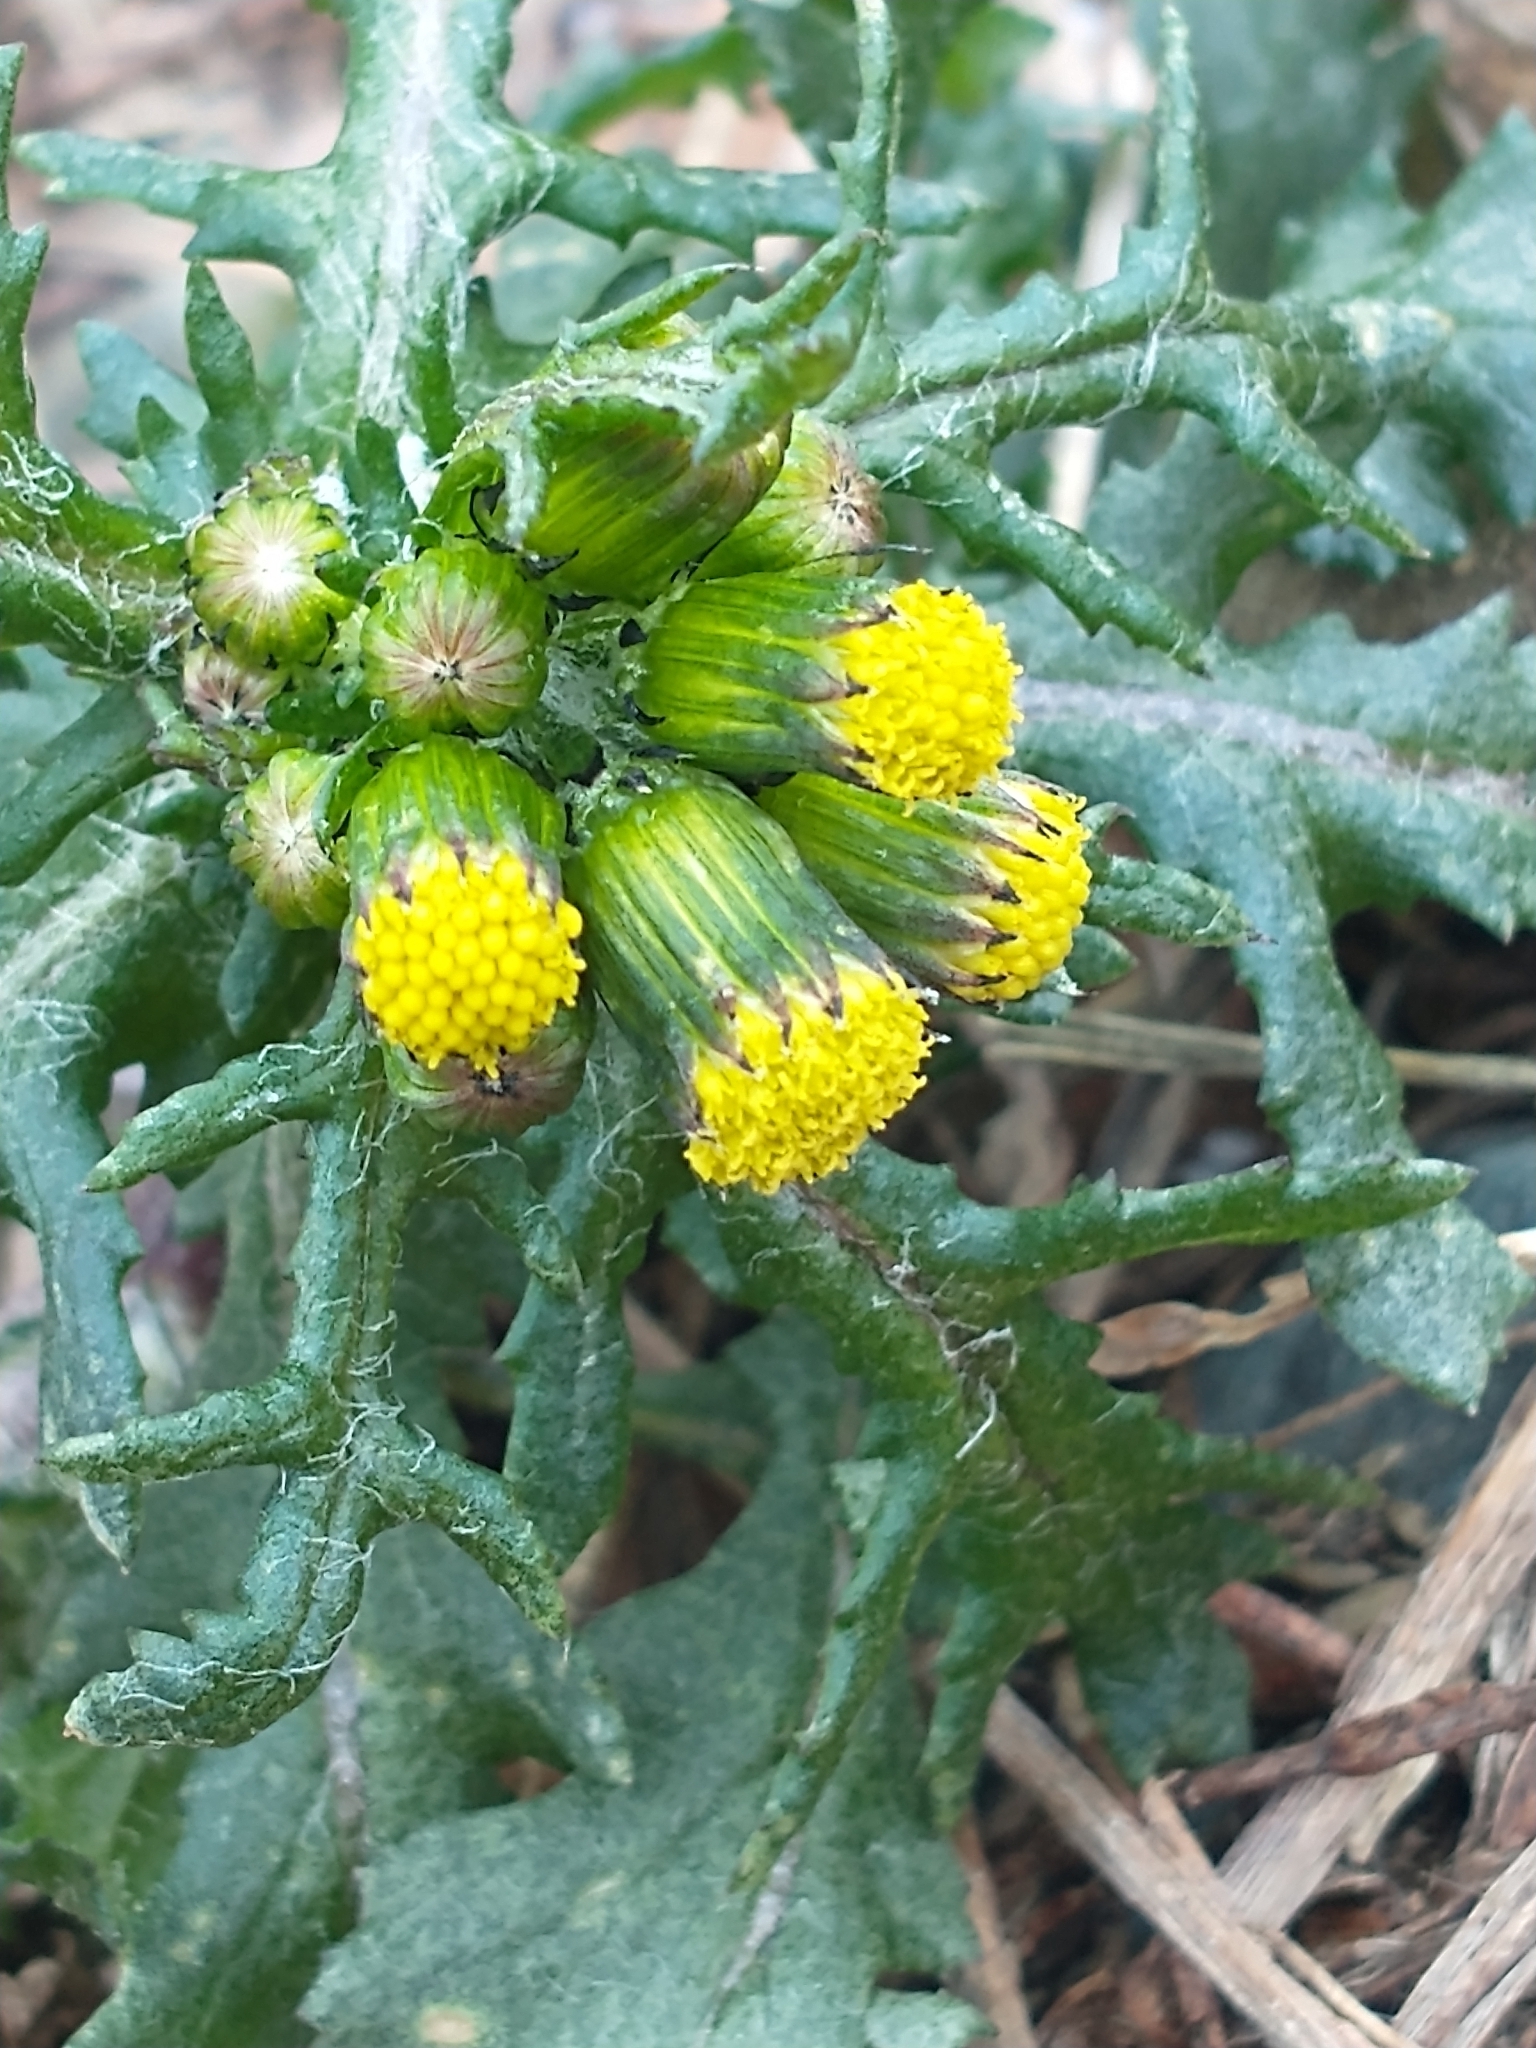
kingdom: Plantae
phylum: Tracheophyta
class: Magnoliopsida
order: Asterales
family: Asteraceae
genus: Senecio
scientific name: Senecio vulgaris
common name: Old-man-in-the-spring
